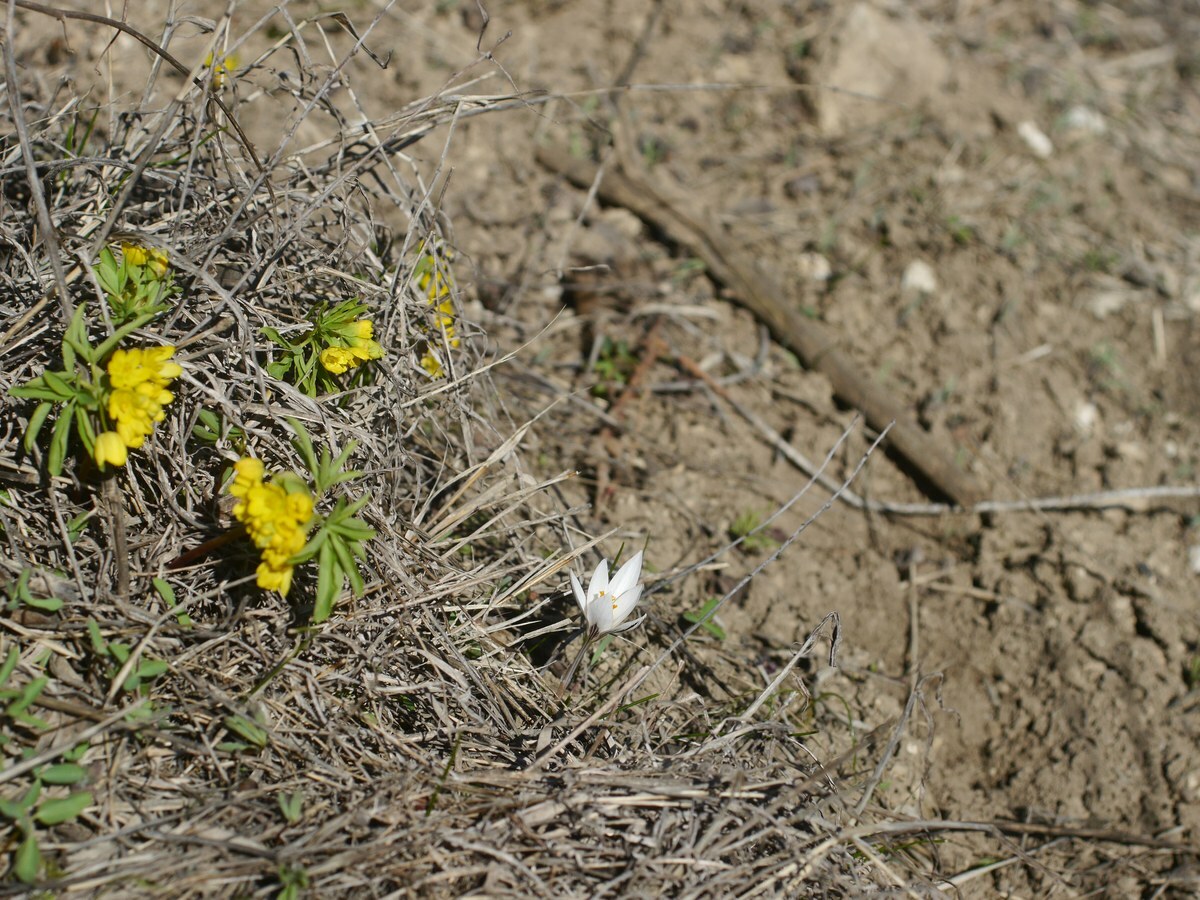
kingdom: Plantae
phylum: Tracheophyta
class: Liliopsida
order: Asparagales
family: Iridaceae
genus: Crocus
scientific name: Crocus reticulatus
